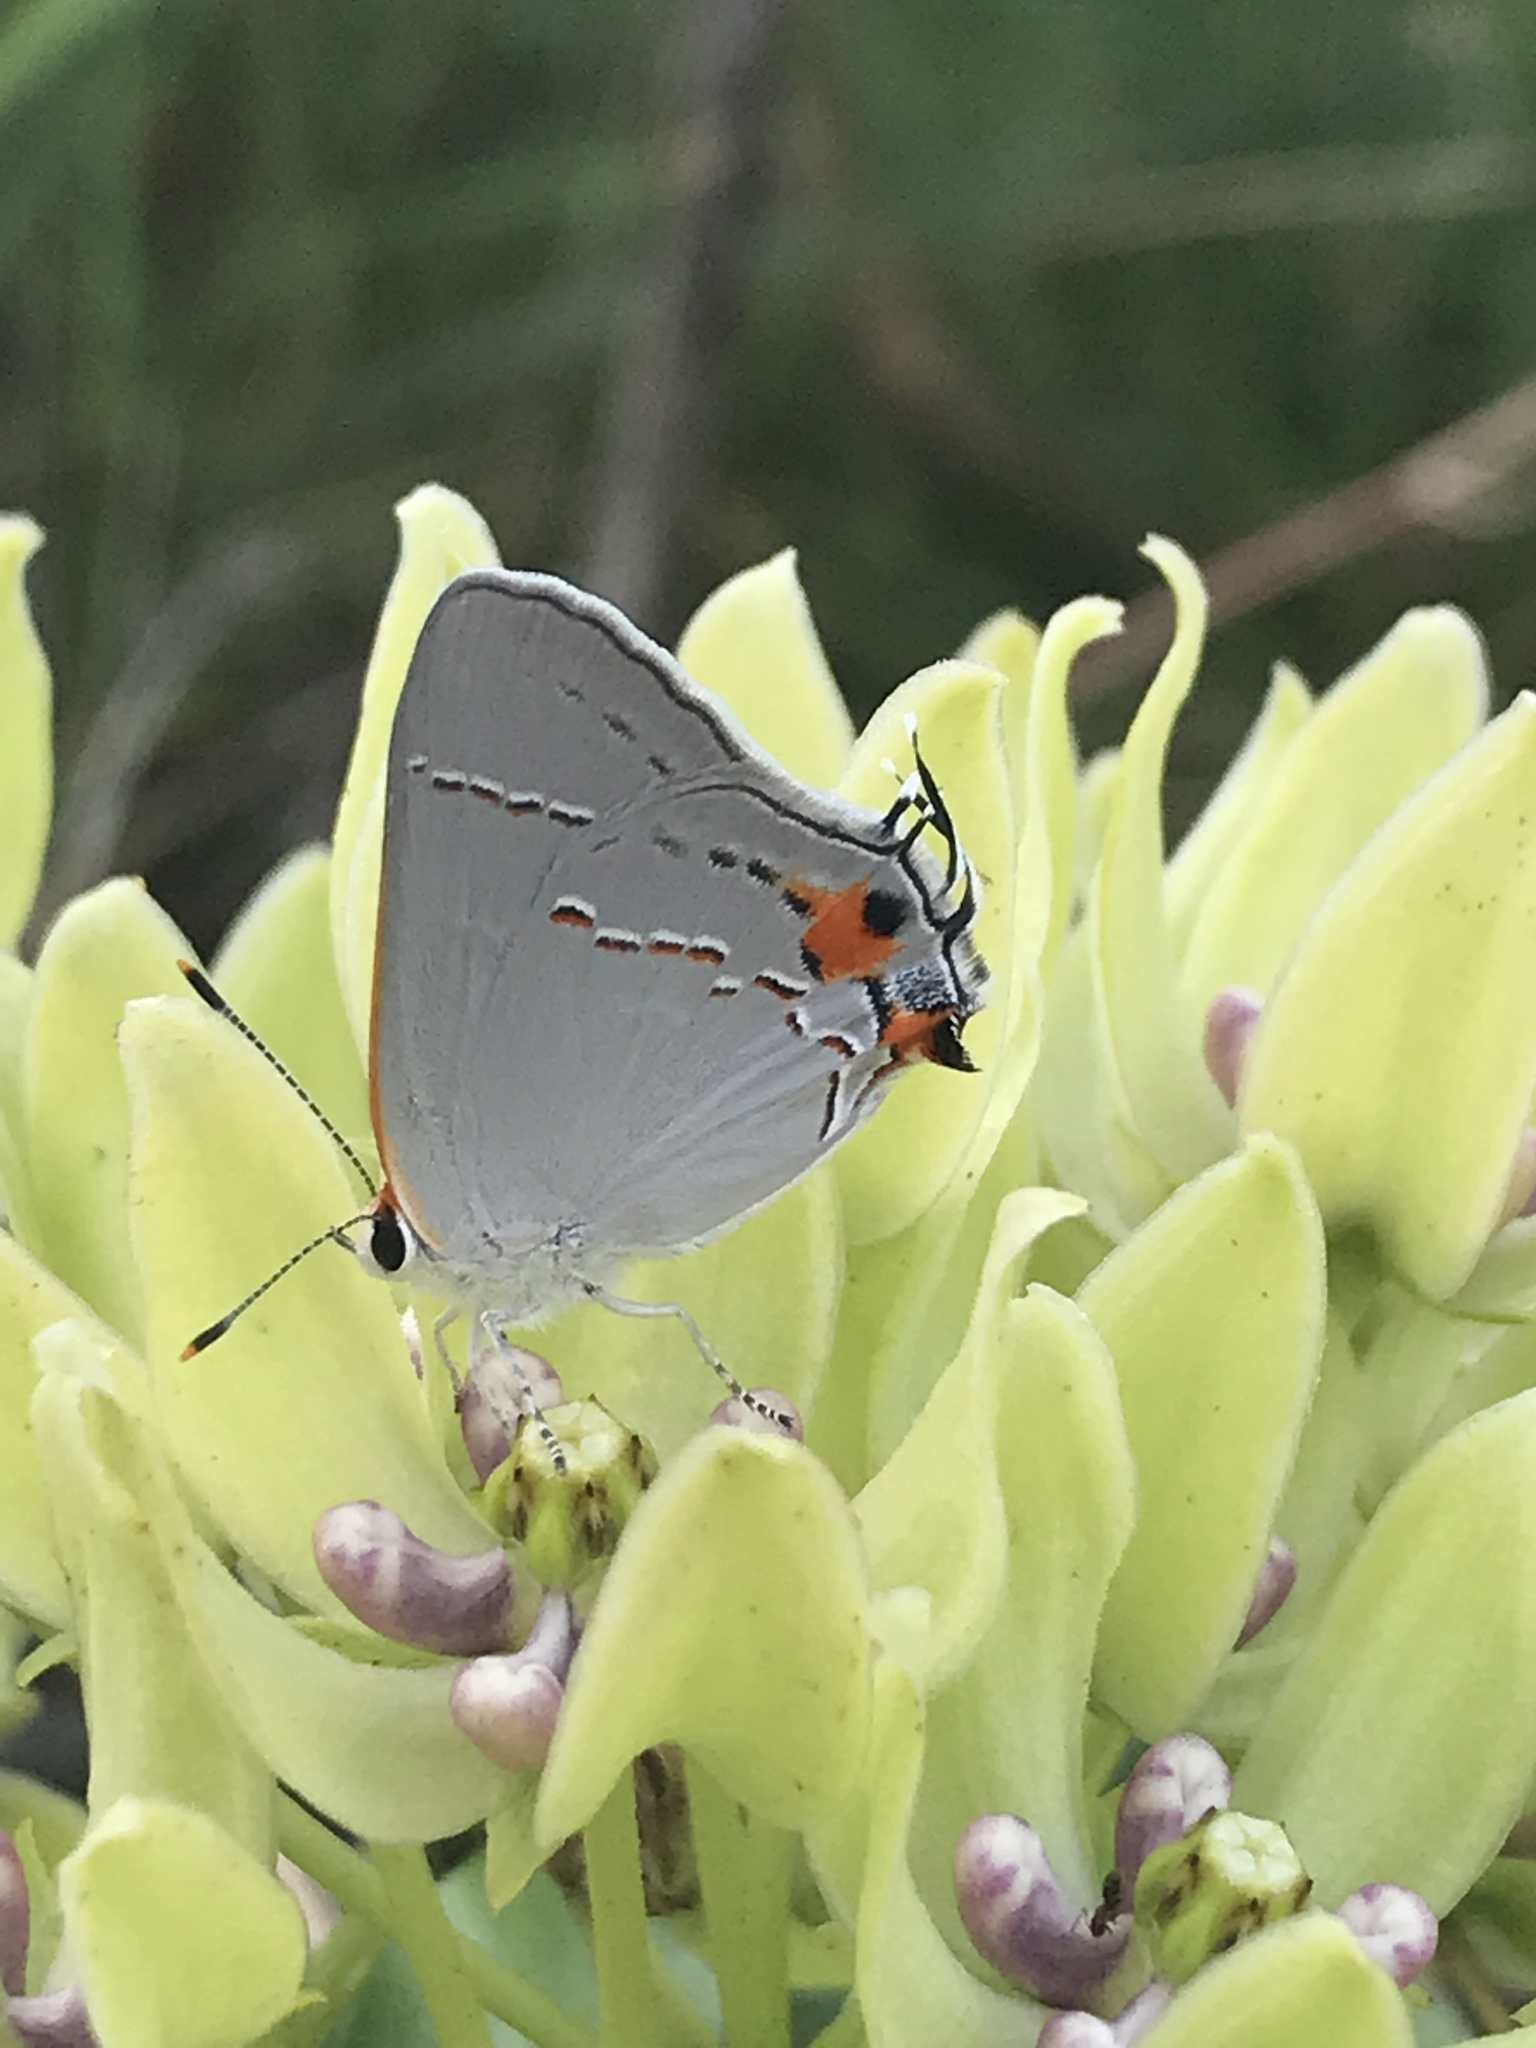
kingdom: Animalia
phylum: Arthropoda
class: Insecta
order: Lepidoptera
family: Lycaenidae
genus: Strymon
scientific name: Strymon melinus
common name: Gray hairstreak
